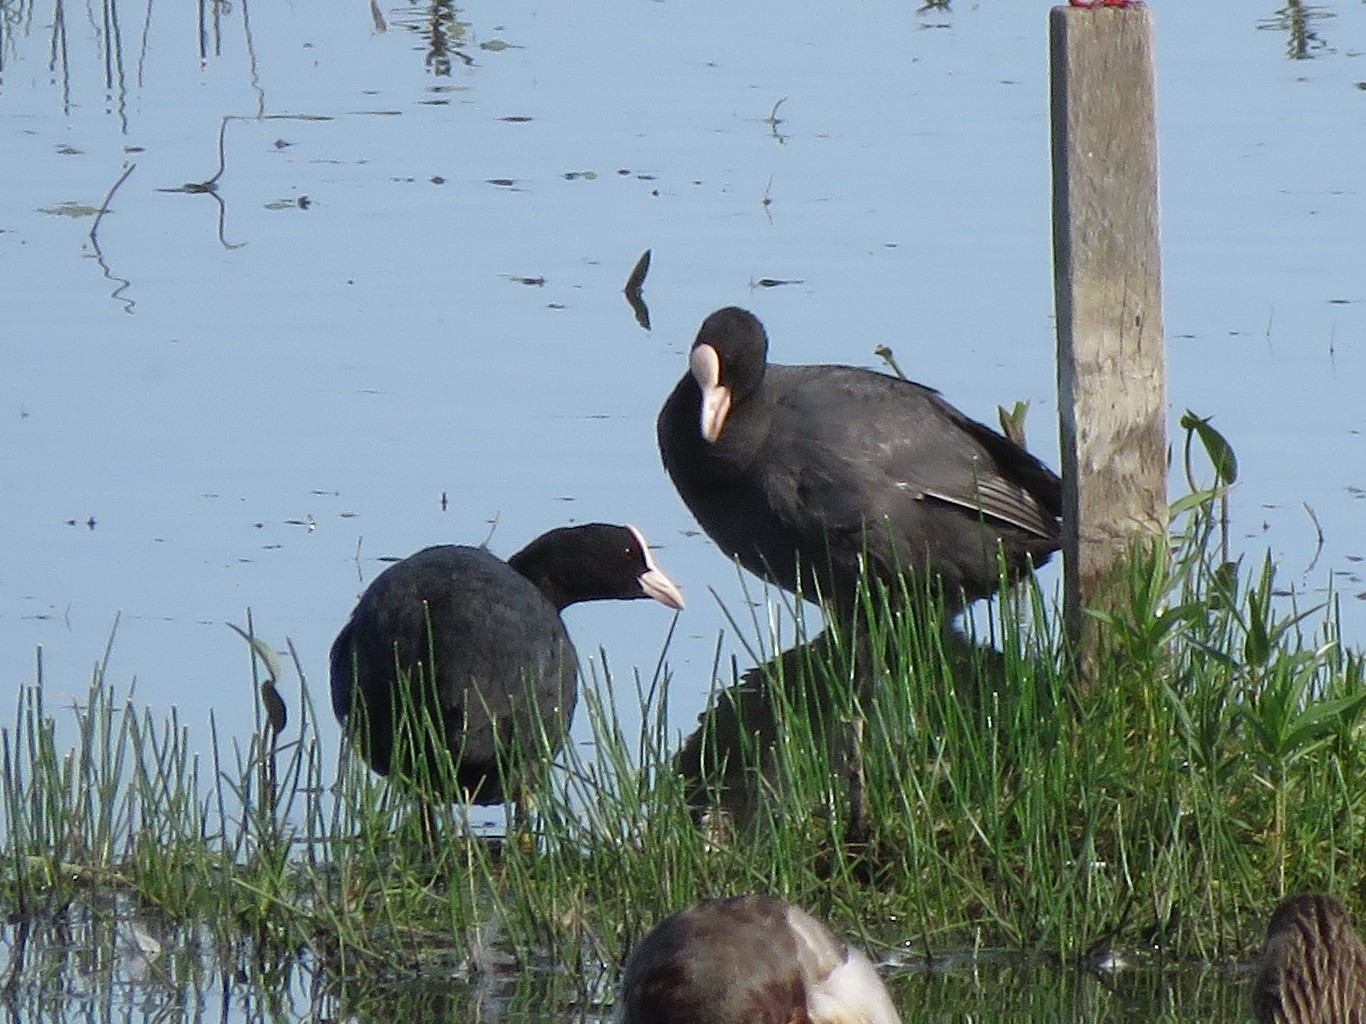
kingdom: Animalia
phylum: Chordata
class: Aves
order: Gruiformes
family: Rallidae
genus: Fulica
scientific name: Fulica atra
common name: Eurasian coot
